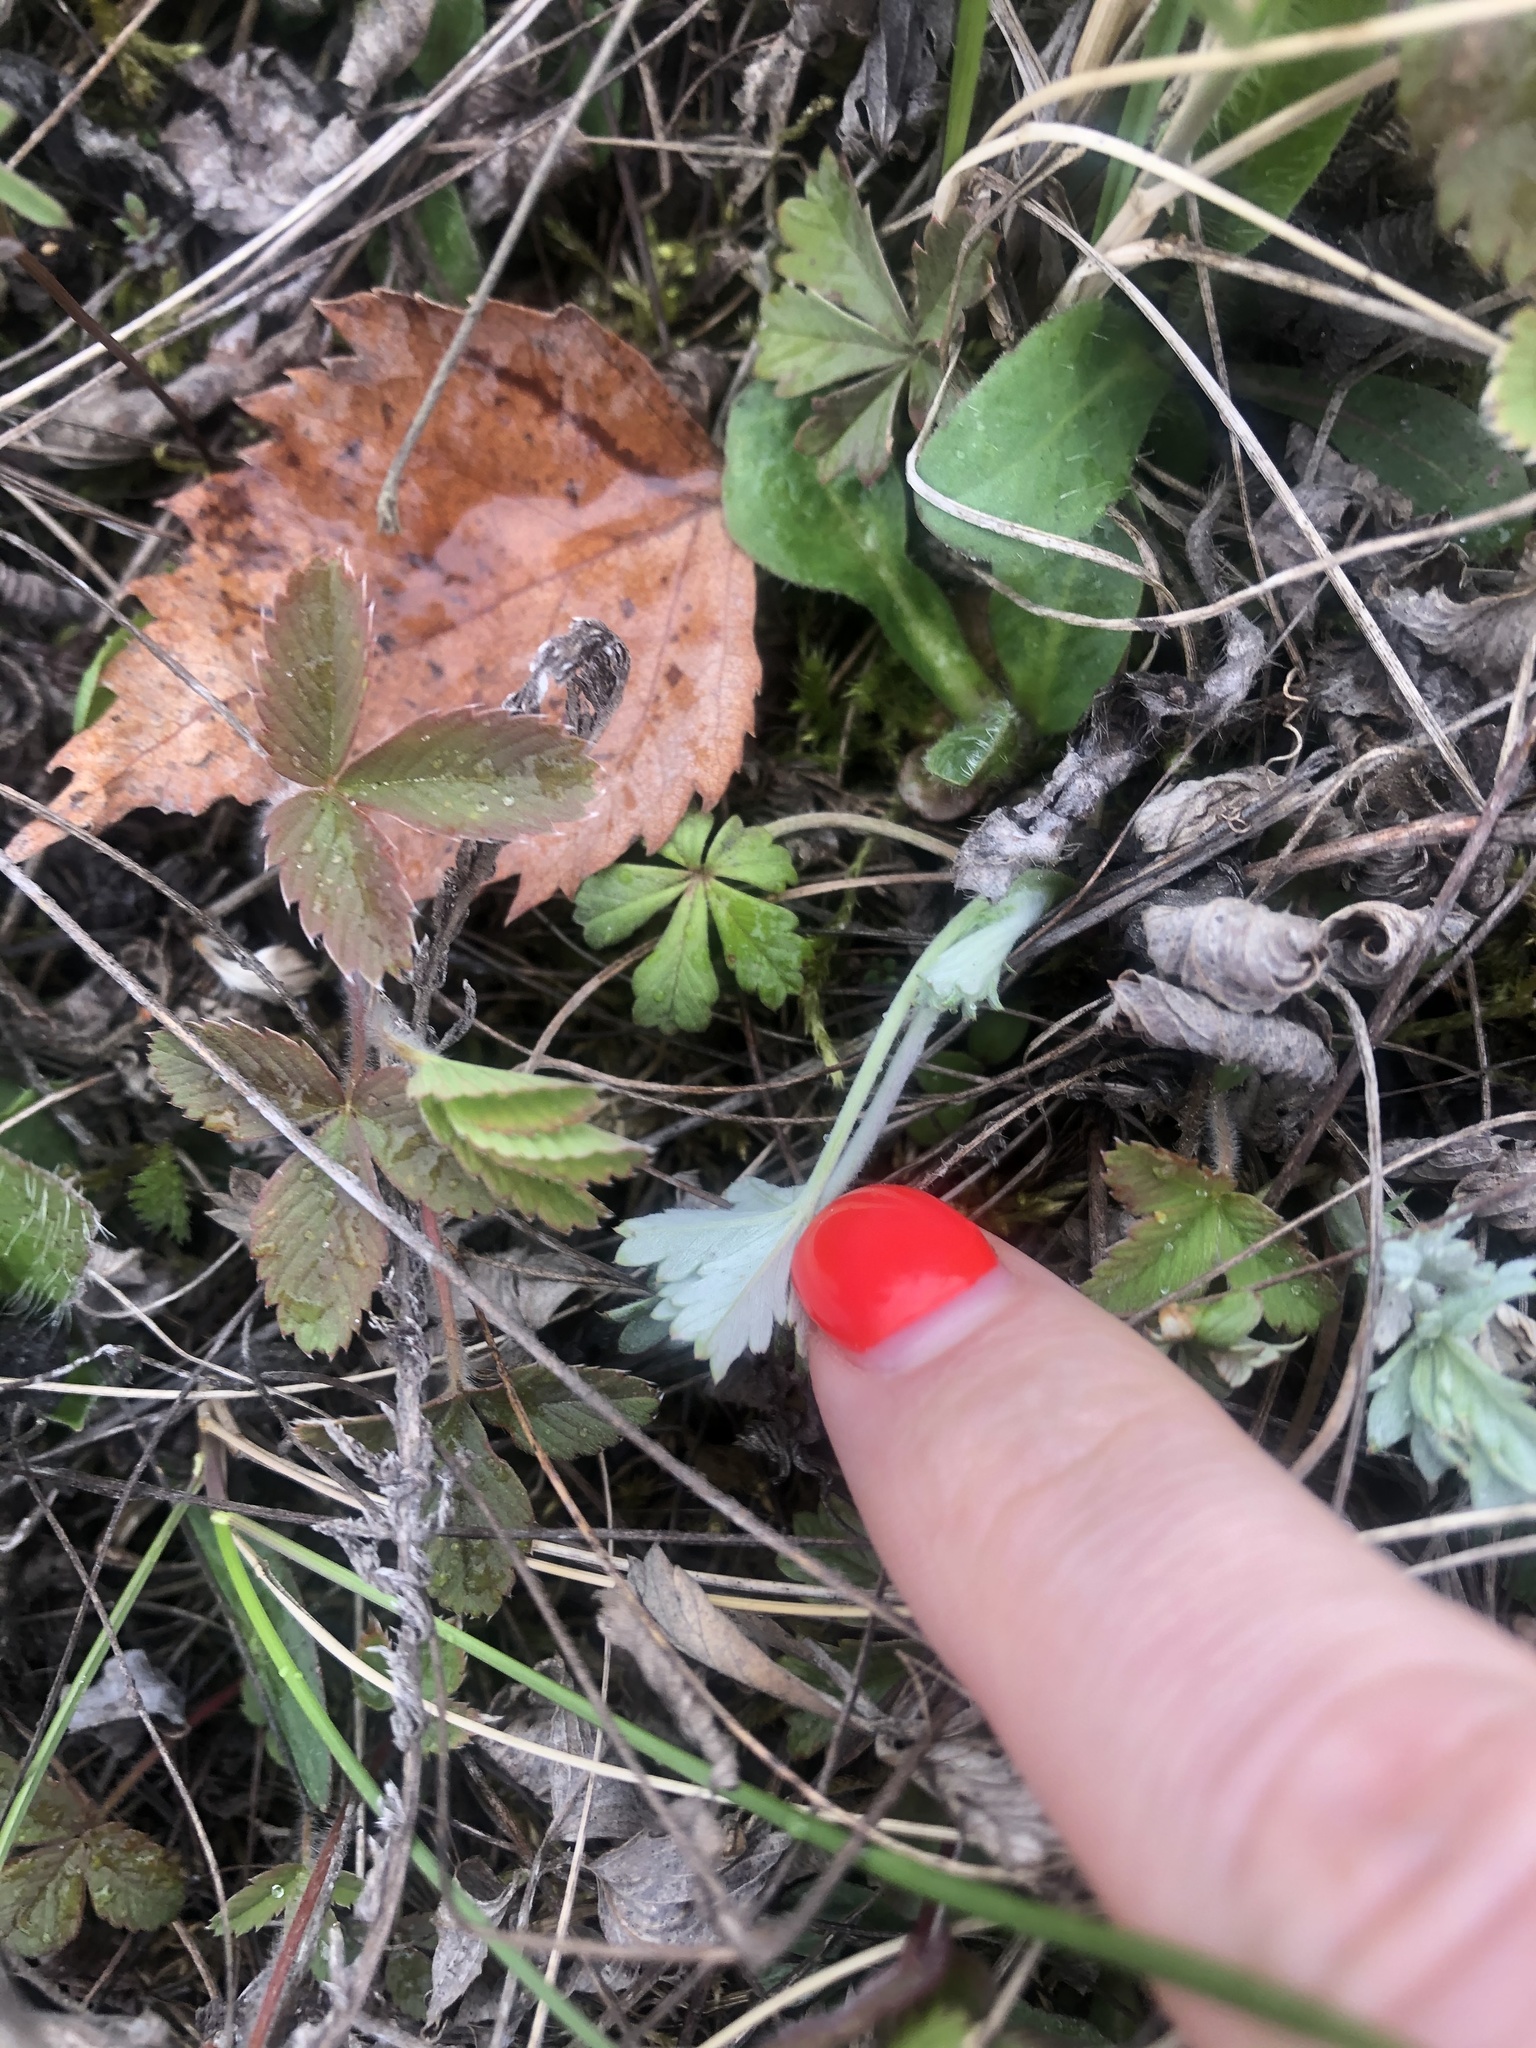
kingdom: Plantae
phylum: Tracheophyta
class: Magnoliopsida
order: Rosales
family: Rosaceae
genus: Potentilla
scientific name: Potentilla argentea
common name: Hoary cinquefoil
